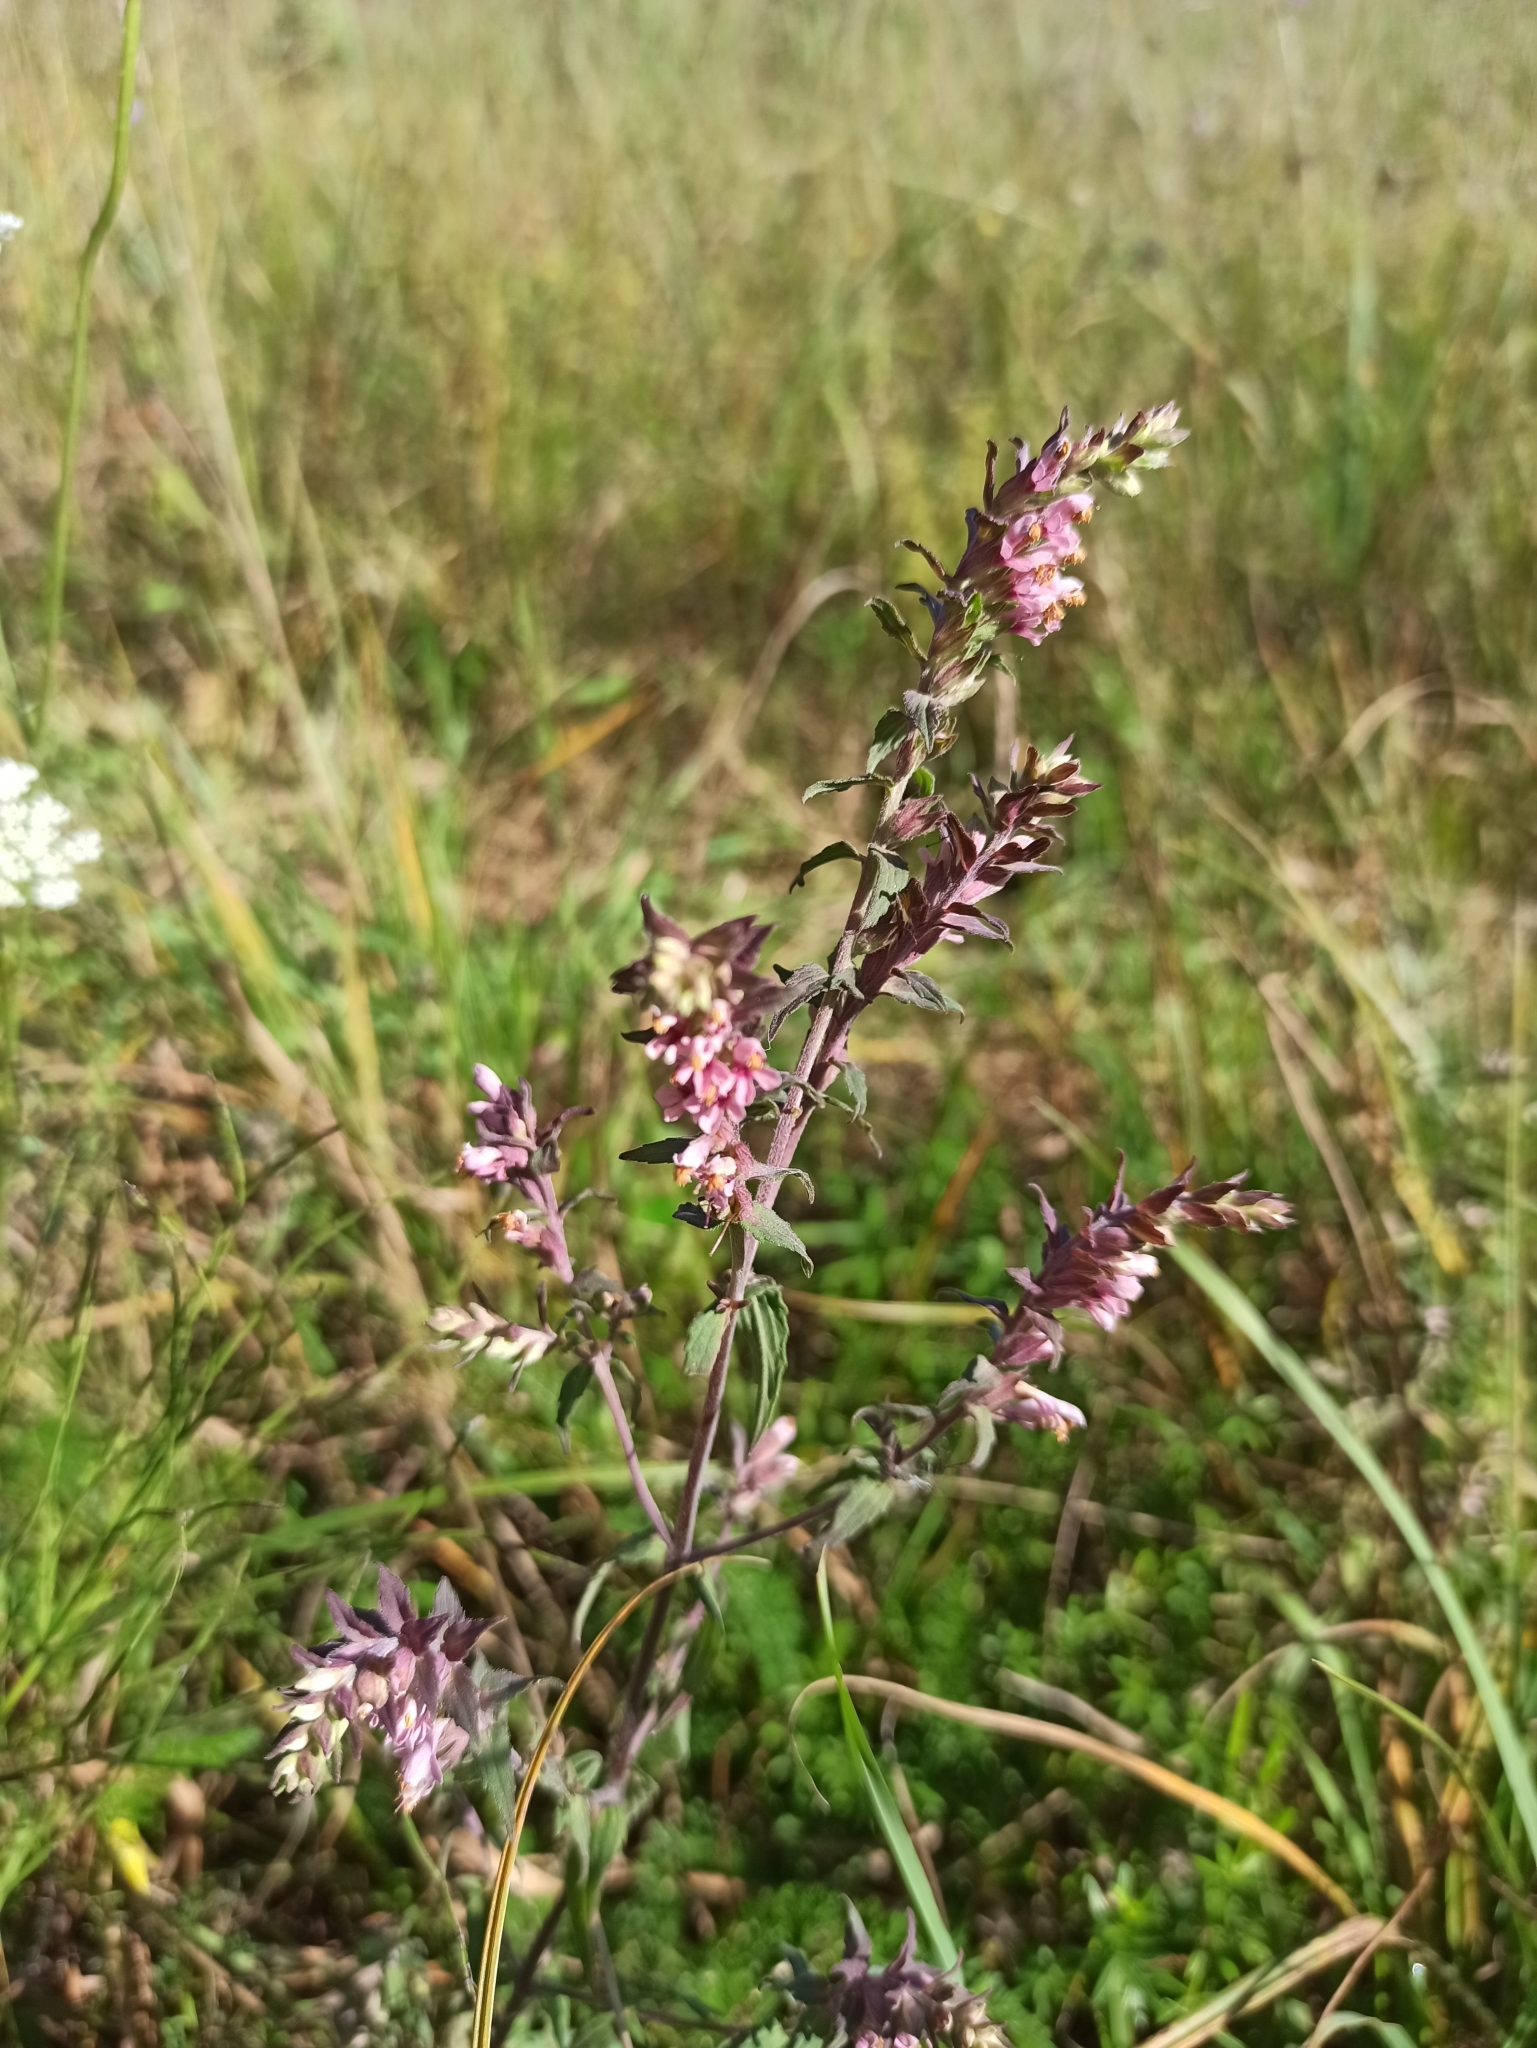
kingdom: Plantae
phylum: Tracheophyta
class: Magnoliopsida
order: Lamiales
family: Orobanchaceae
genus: Odontites
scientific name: Odontites vulgaris
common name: Broomrape
